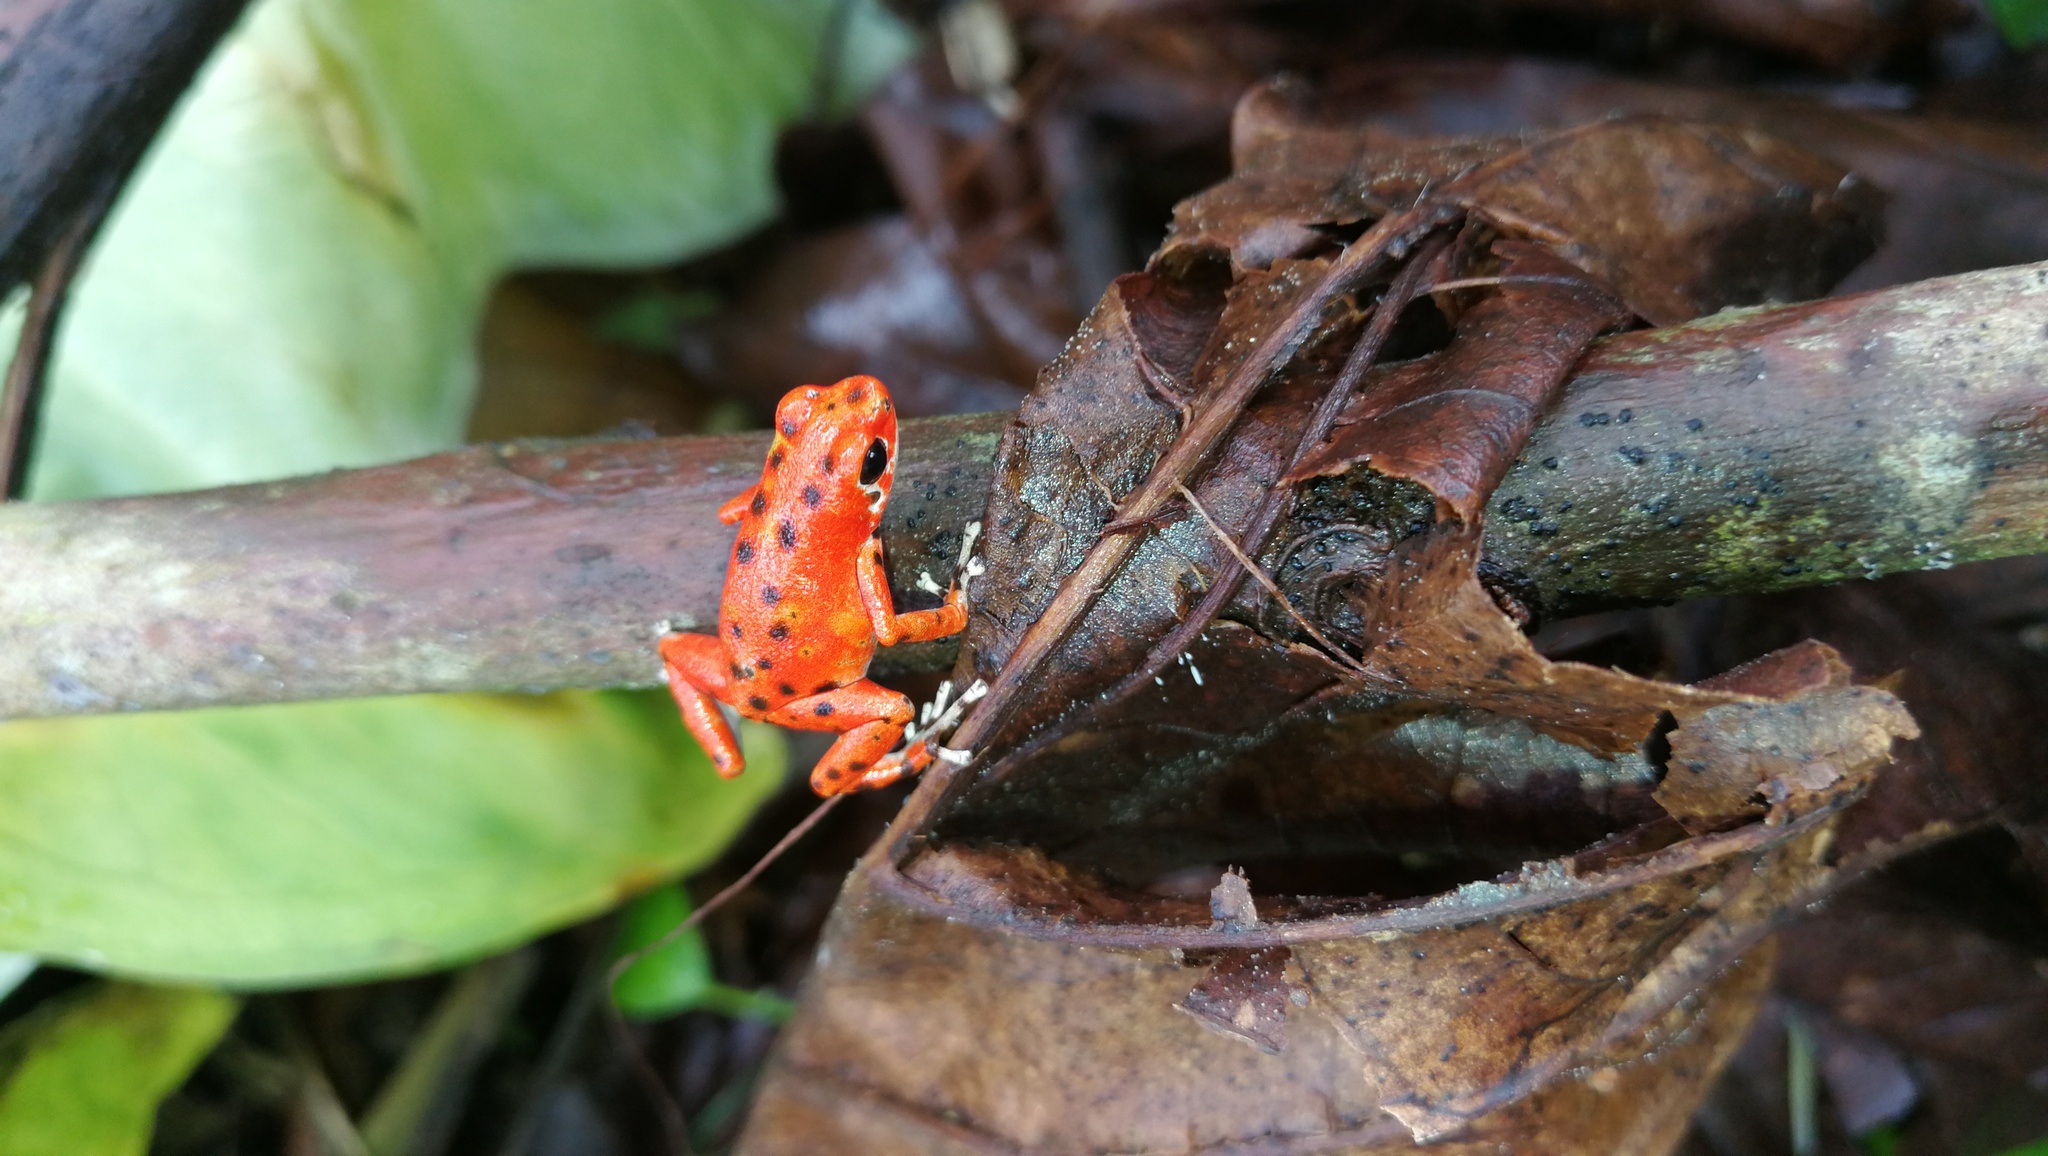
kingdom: Animalia
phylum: Chordata
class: Amphibia
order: Anura
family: Dendrobatidae
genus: Oophaga
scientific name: Oophaga pumilio
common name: Flaming poison frog
